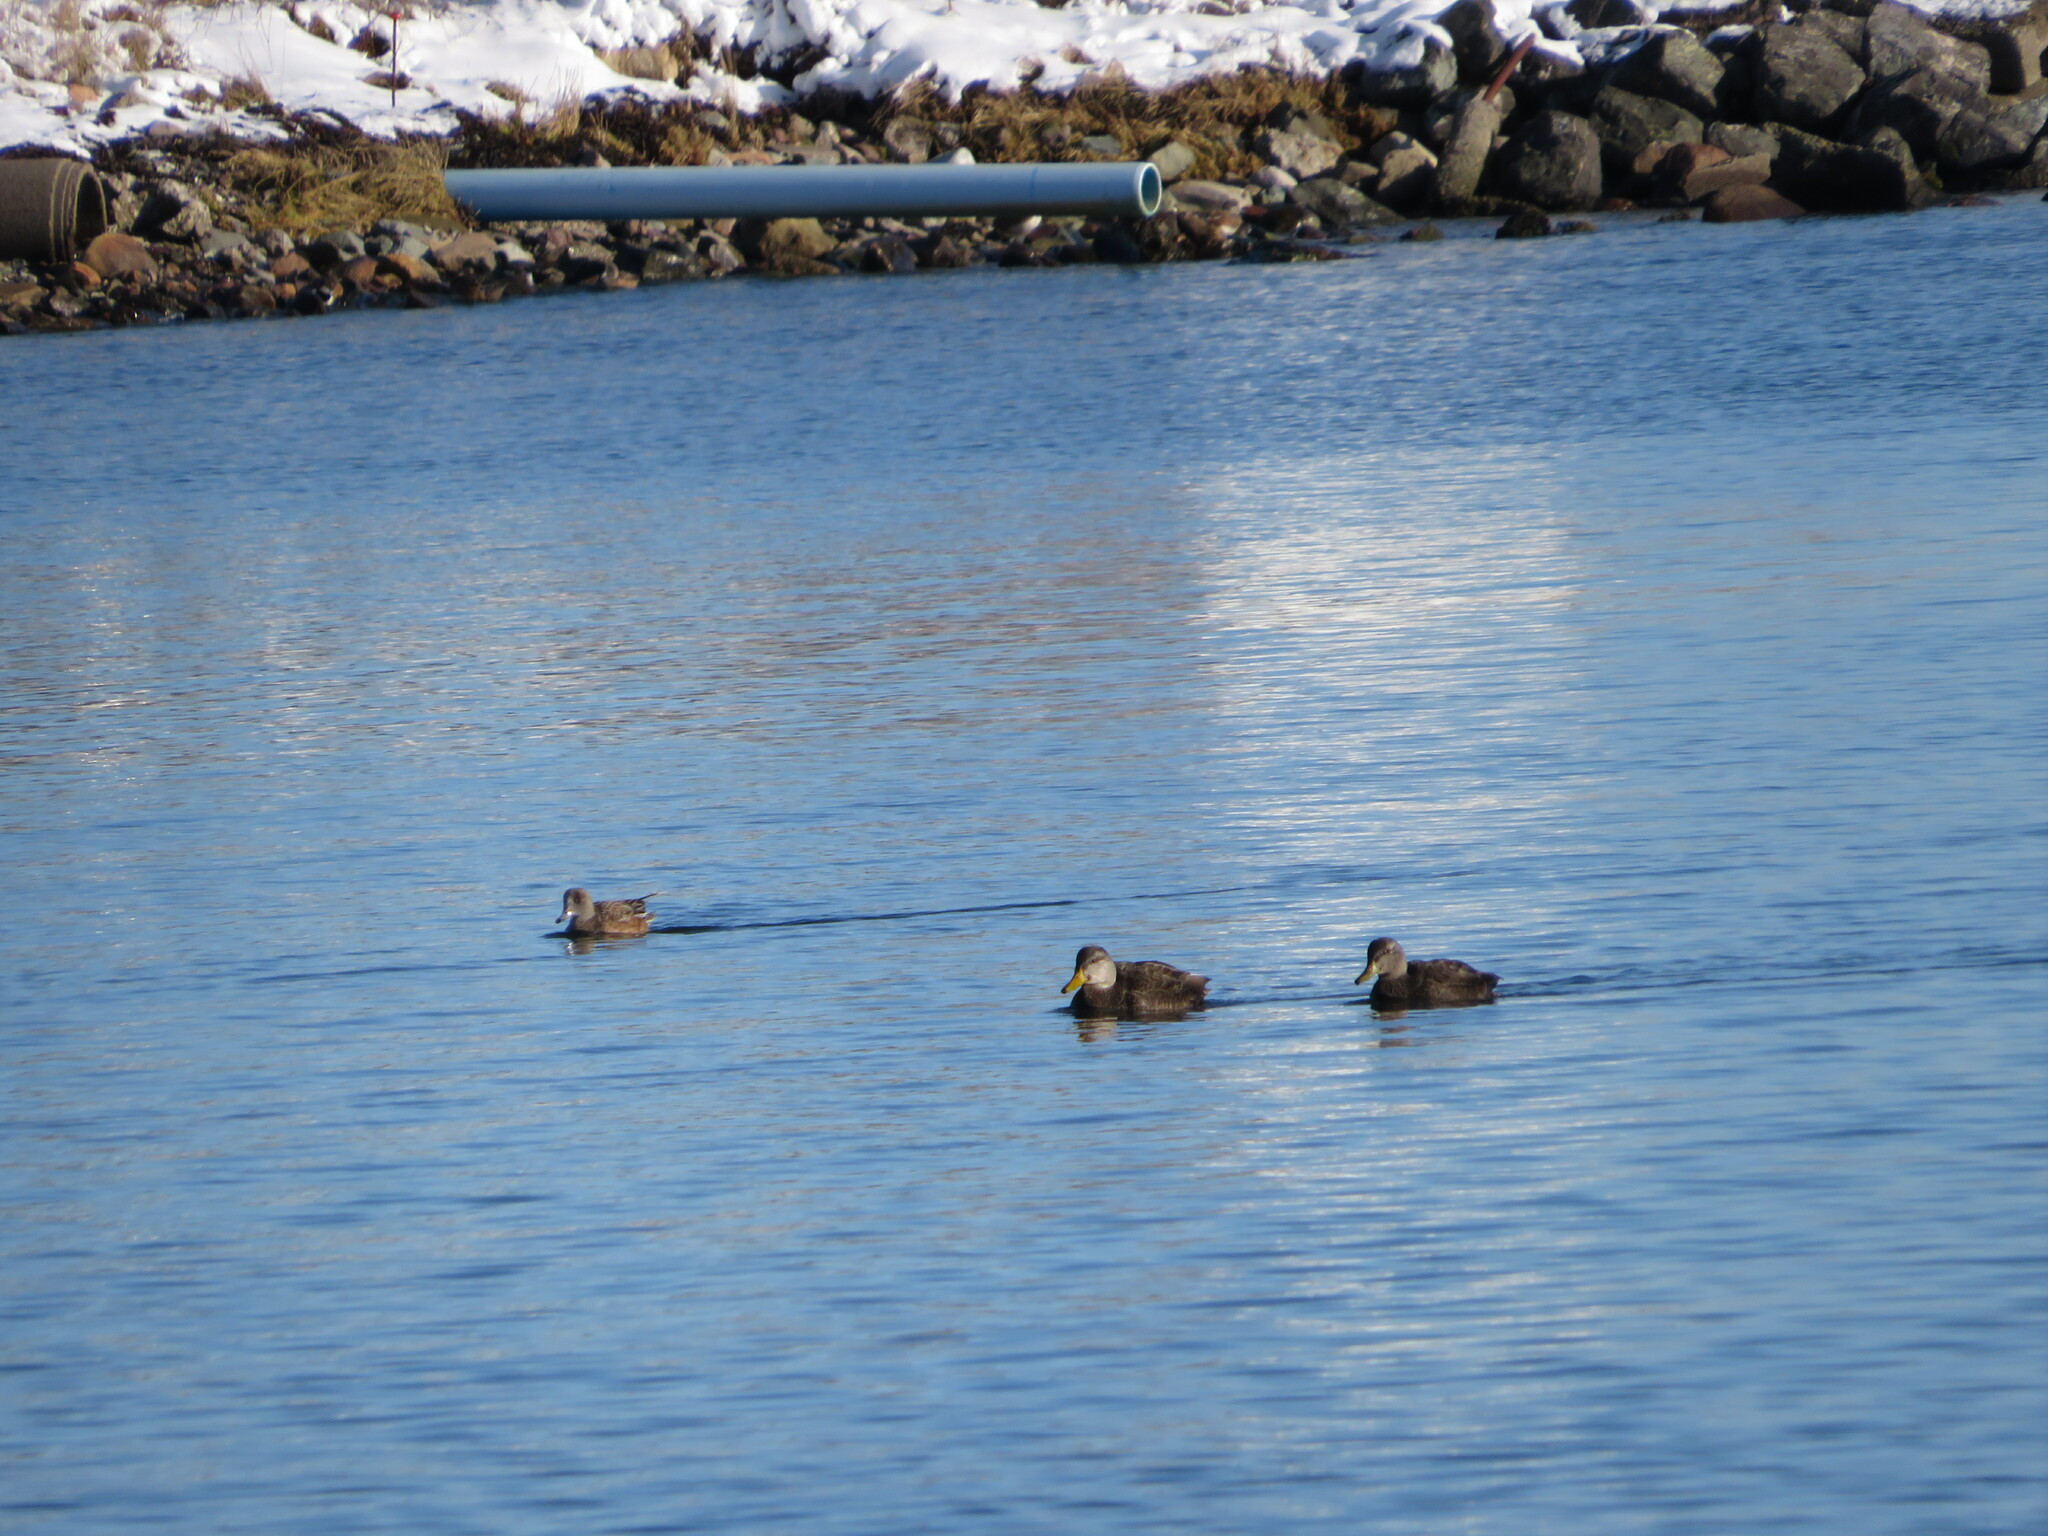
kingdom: Animalia
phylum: Chordata
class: Aves
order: Anseriformes
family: Anatidae
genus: Anas
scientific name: Anas rubripes
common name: American black duck
